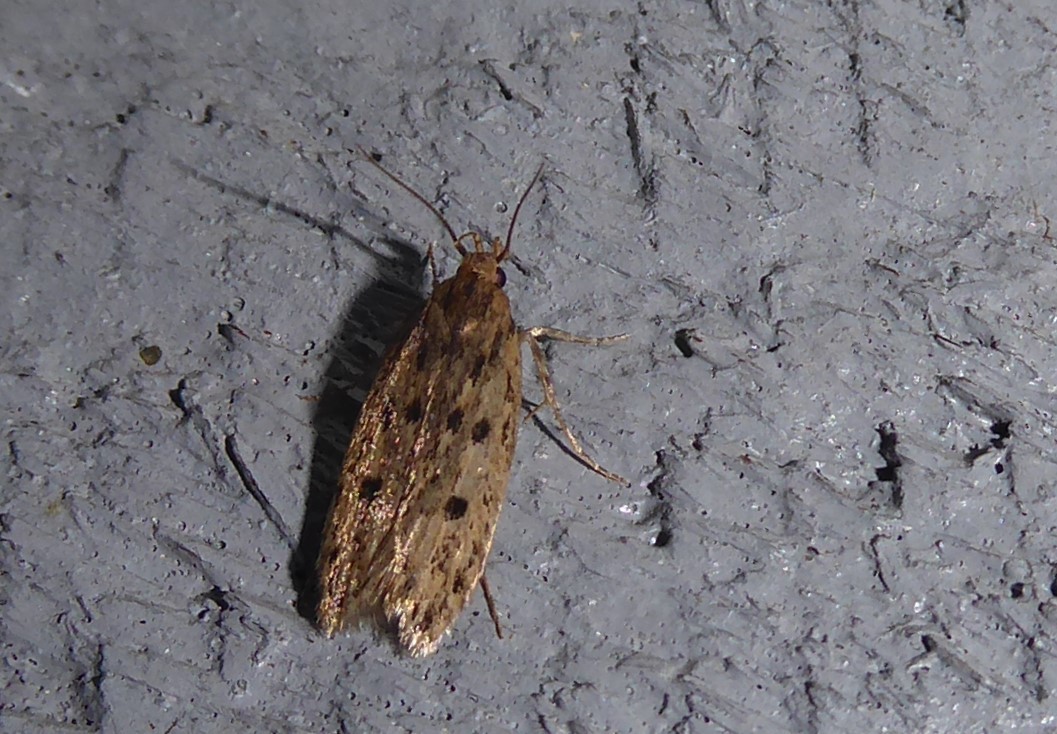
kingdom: Animalia
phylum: Arthropoda
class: Insecta
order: Lepidoptera
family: Oecophoridae
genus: Hofmannophila
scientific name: Hofmannophila pseudospretella
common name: Brown house moth
